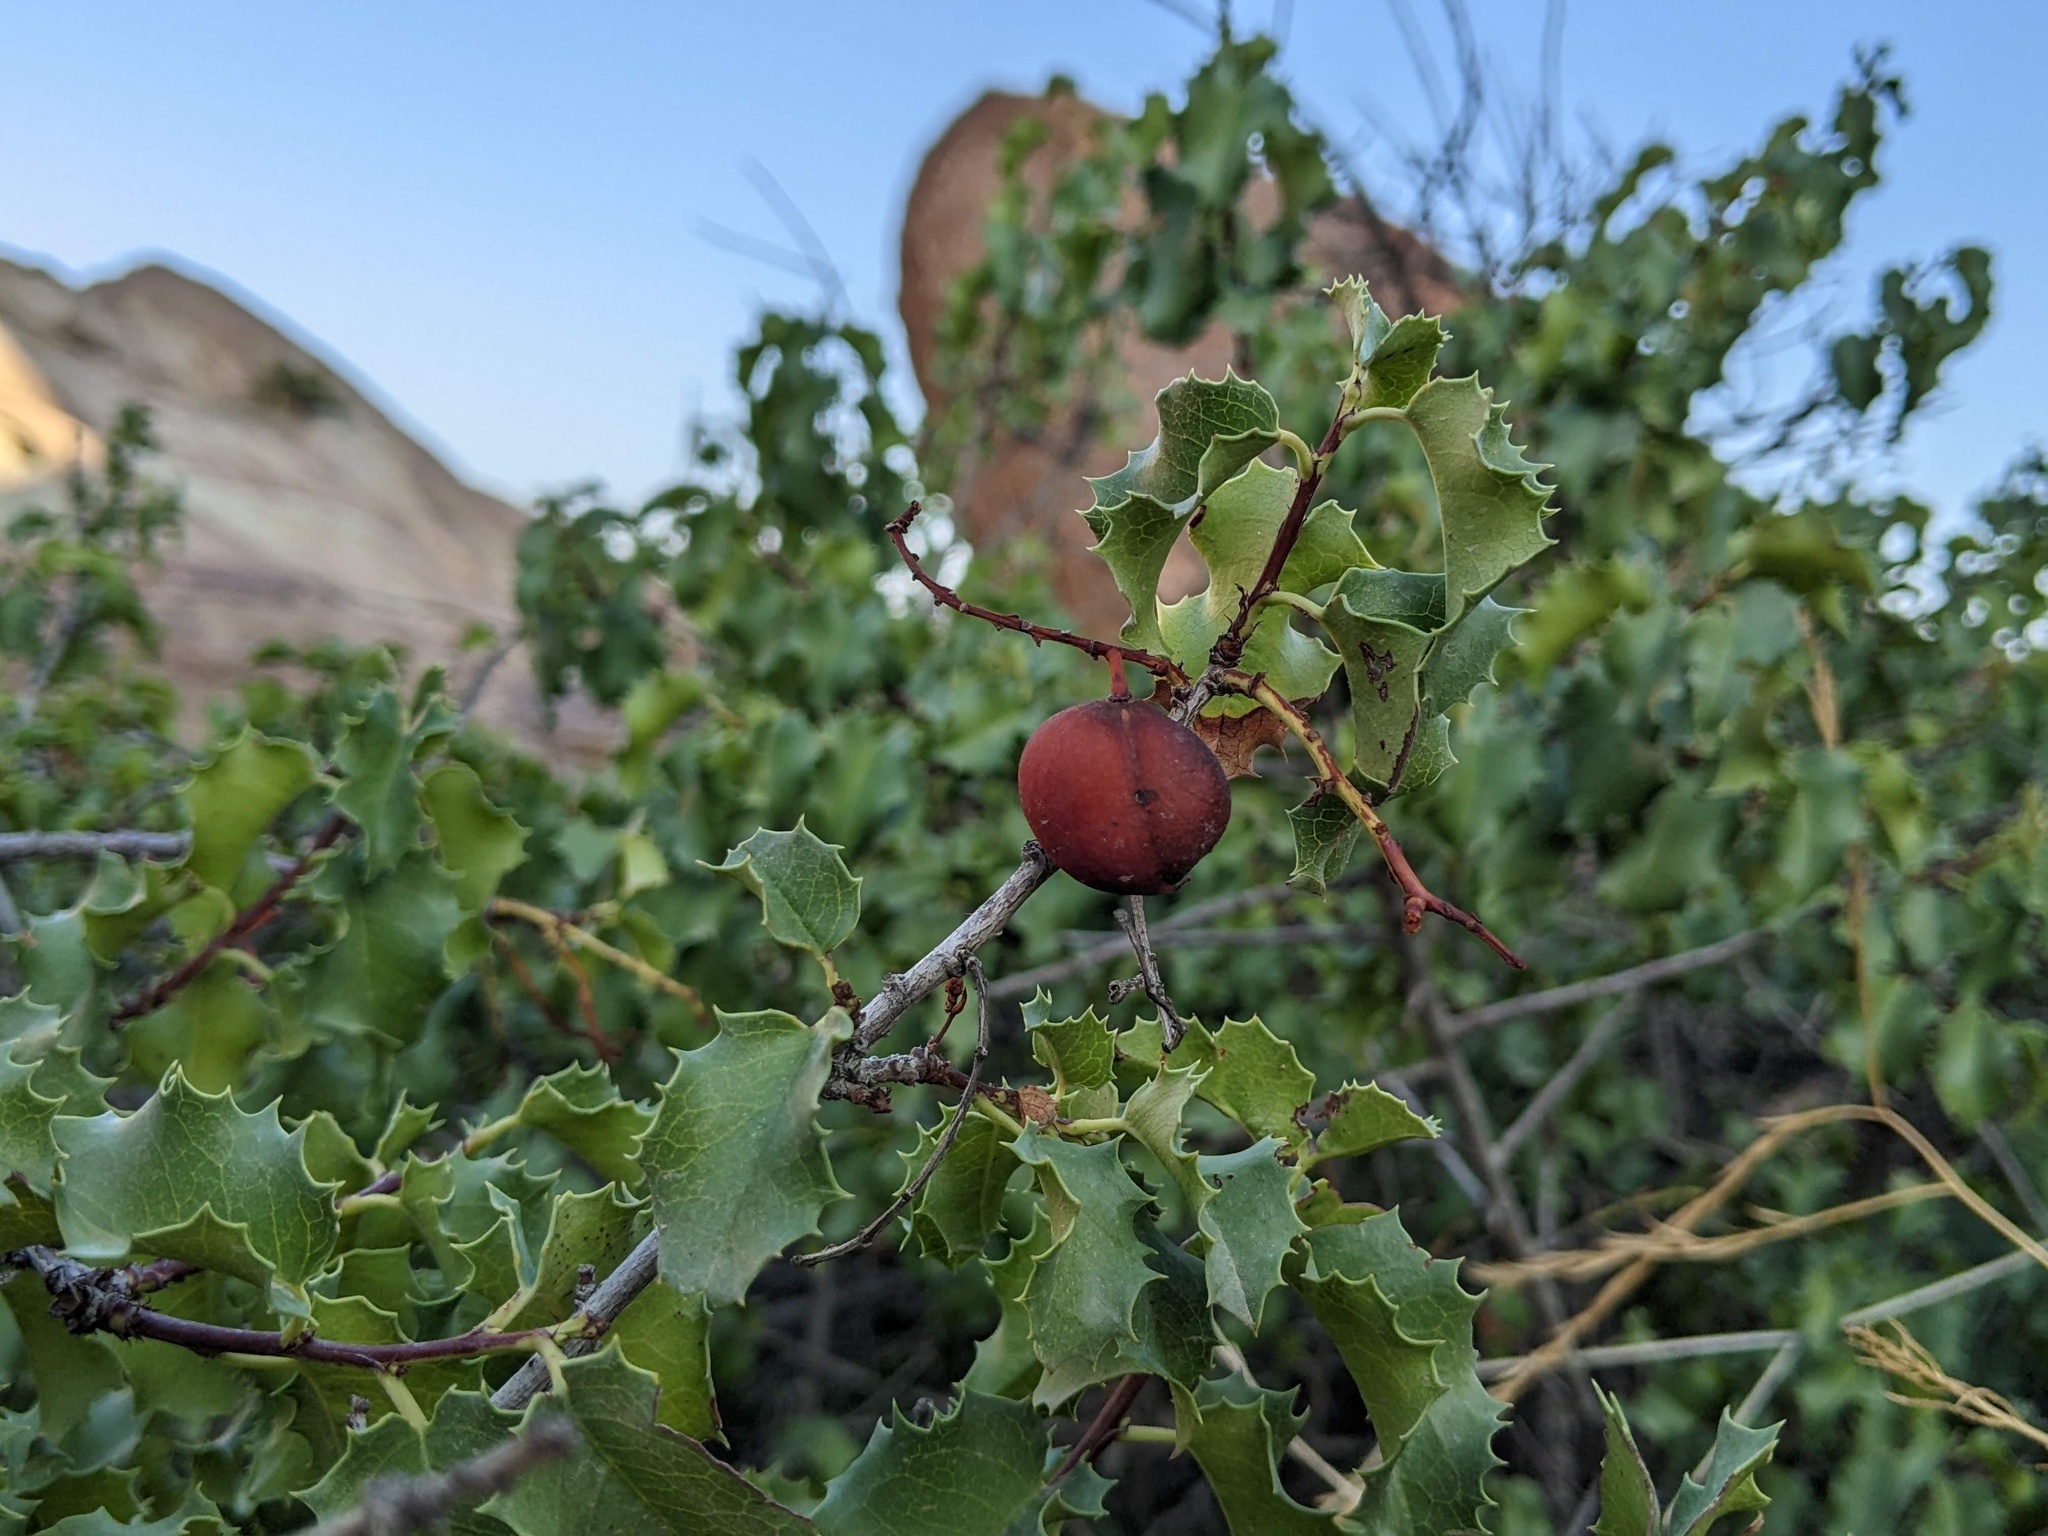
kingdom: Plantae
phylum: Tracheophyta
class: Magnoliopsida
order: Rosales
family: Rosaceae
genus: Prunus
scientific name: Prunus ilicifolia
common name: Hollyleaf cherry
